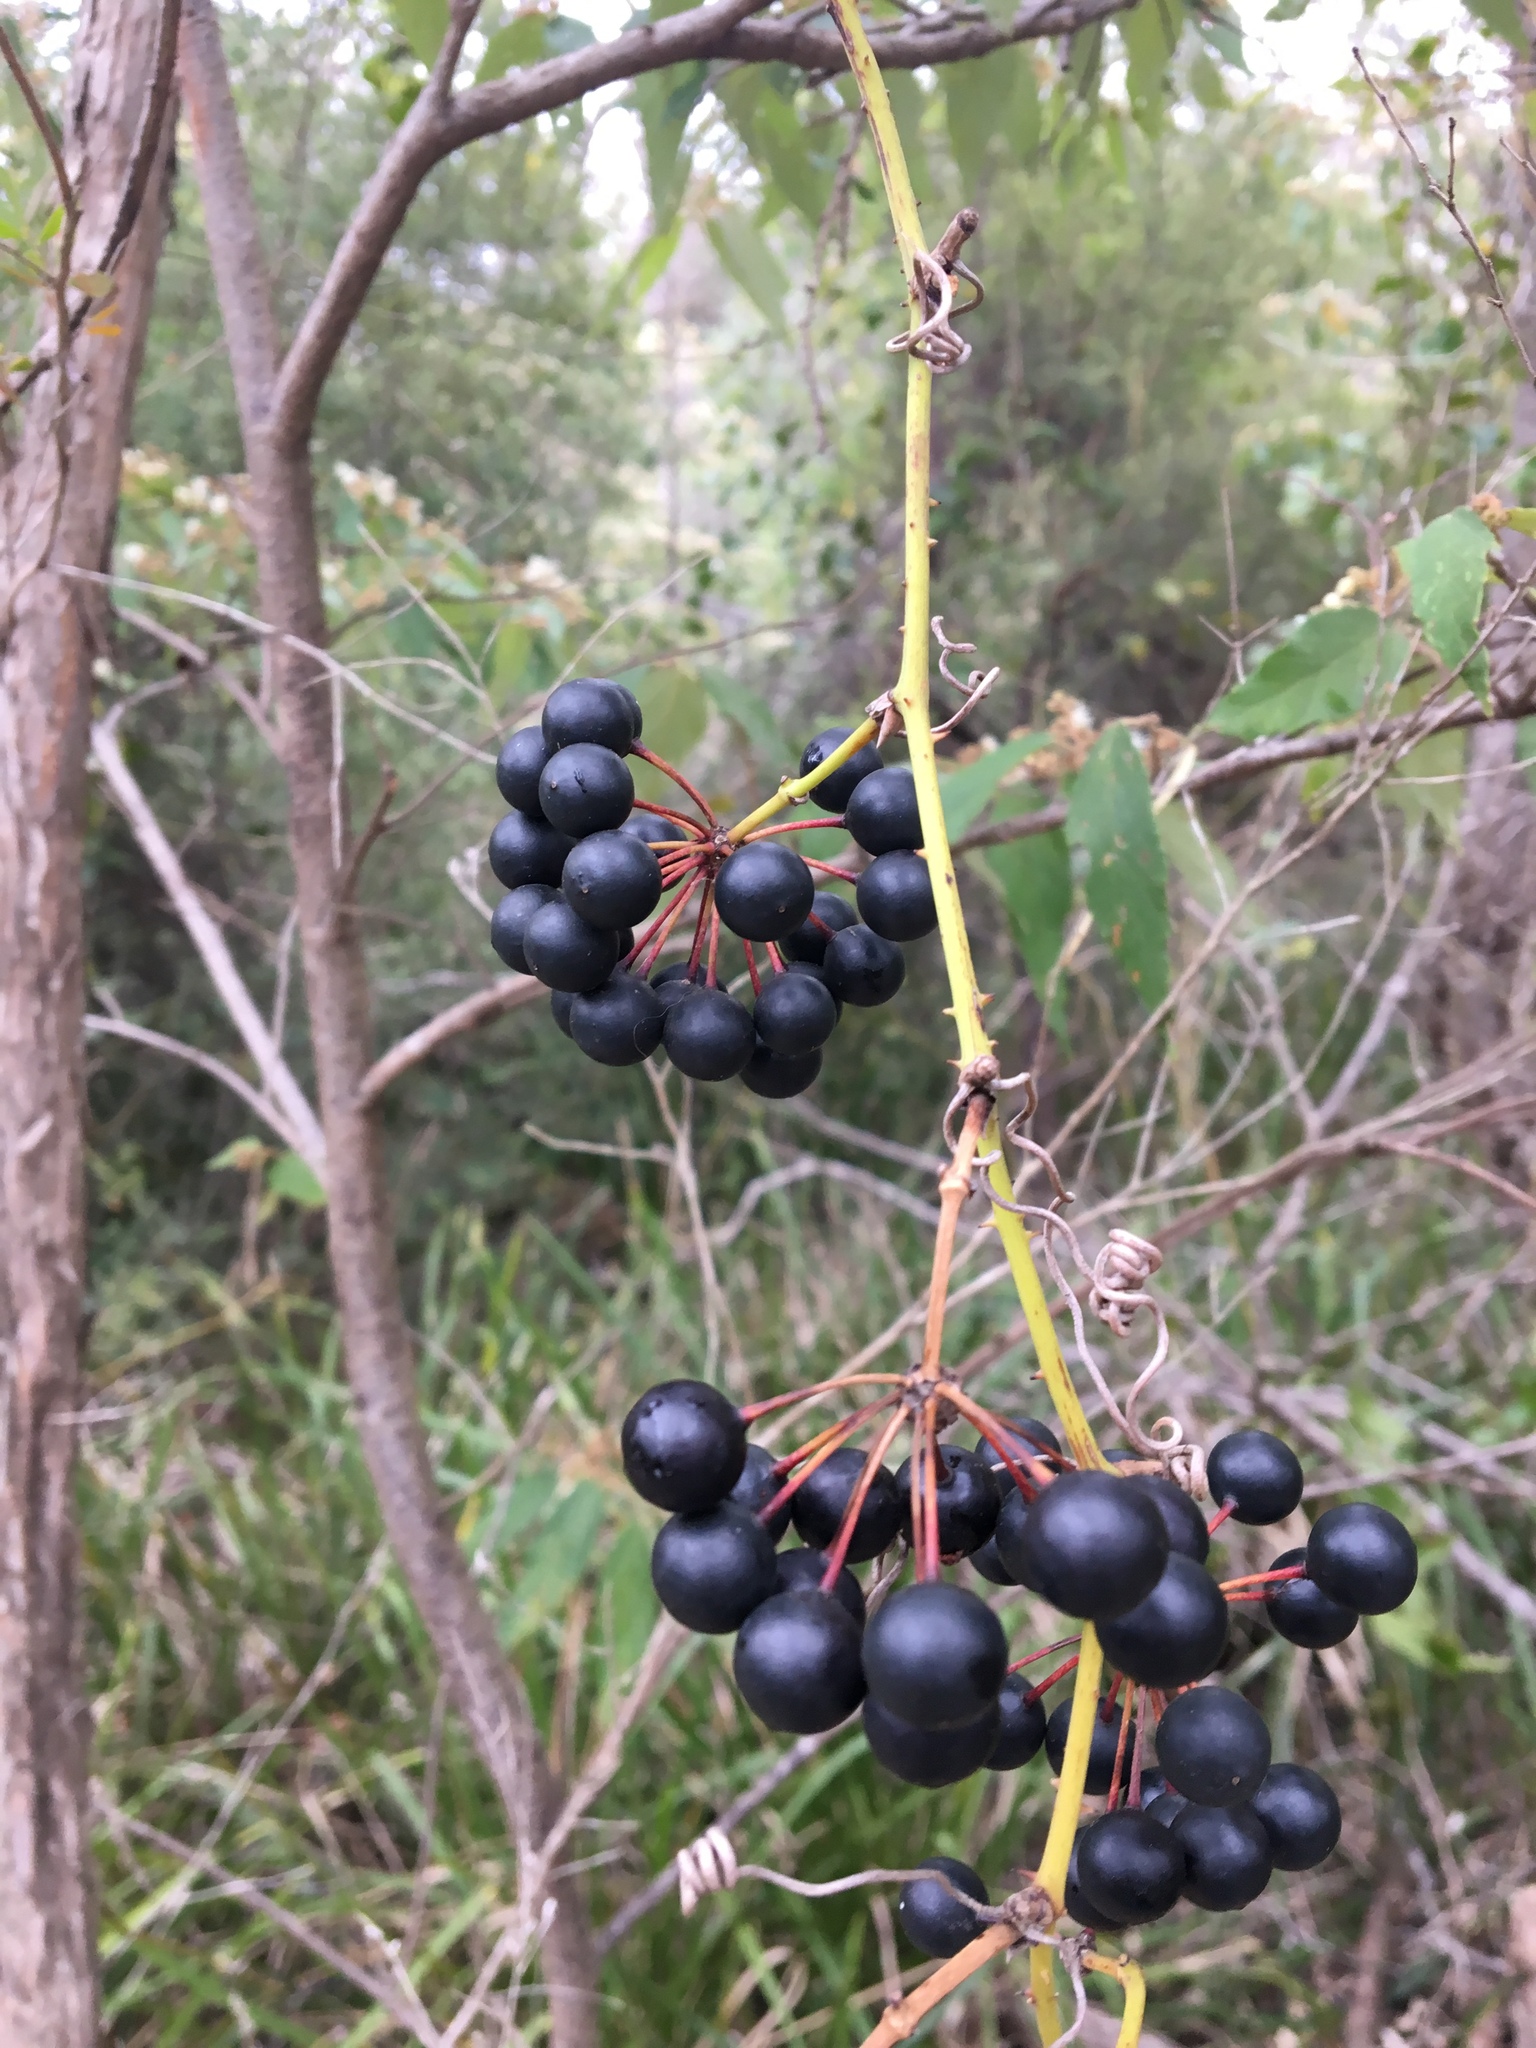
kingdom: Plantae
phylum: Tracheophyta
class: Liliopsida
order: Liliales
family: Smilacaceae
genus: Smilax
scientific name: Smilax australis
